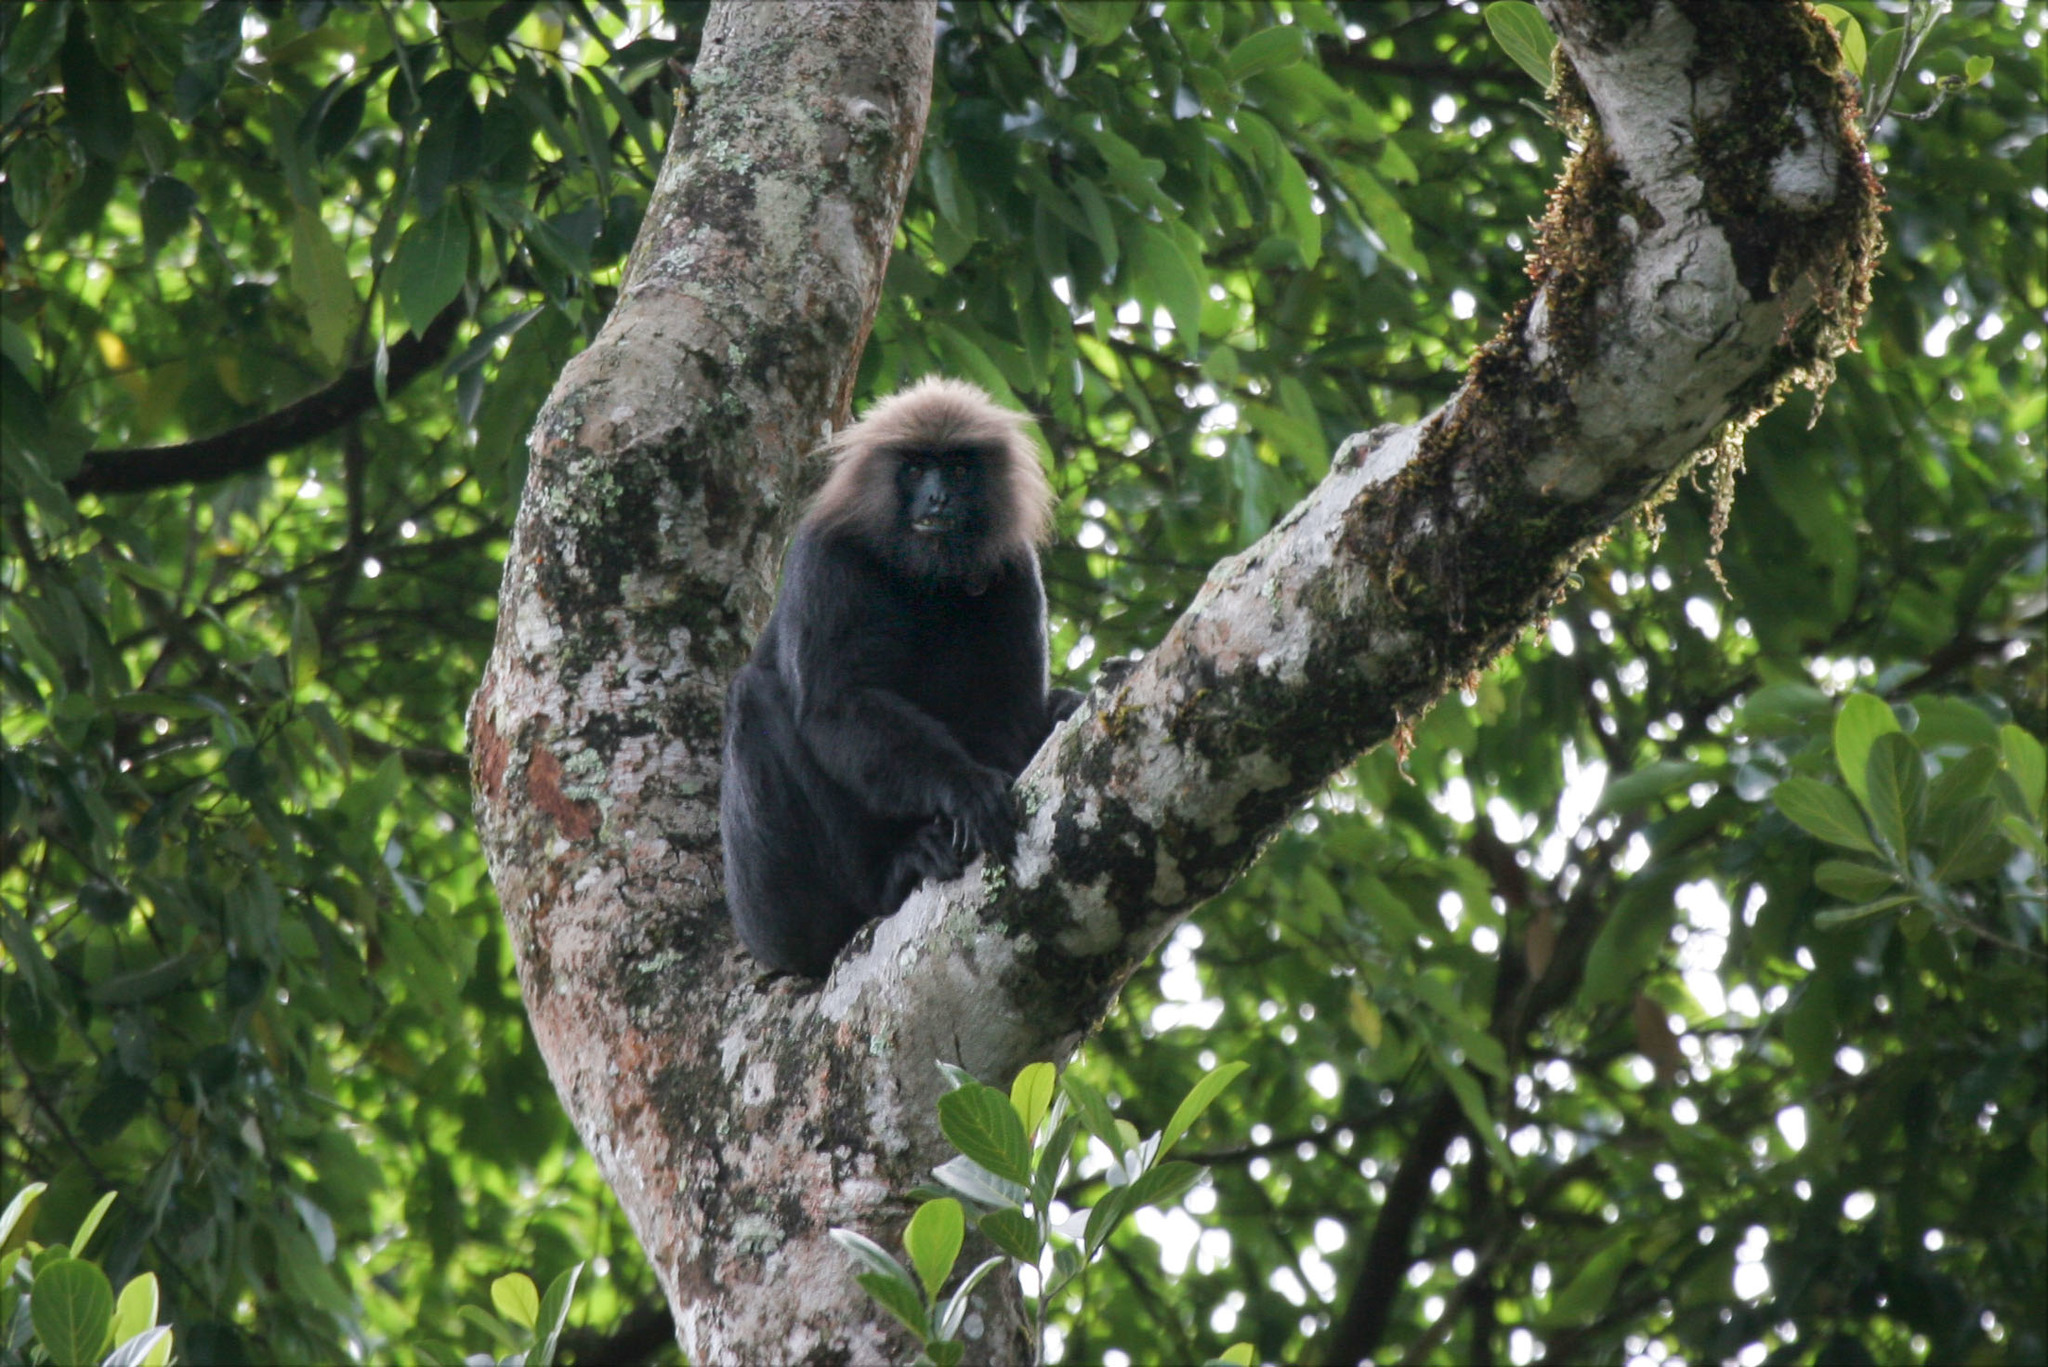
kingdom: Animalia
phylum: Chordata
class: Mammalia
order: Primates
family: Cercopithecidae
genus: Semnopithecus
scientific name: Semnopithecus johnii
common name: Nilgiri langur
